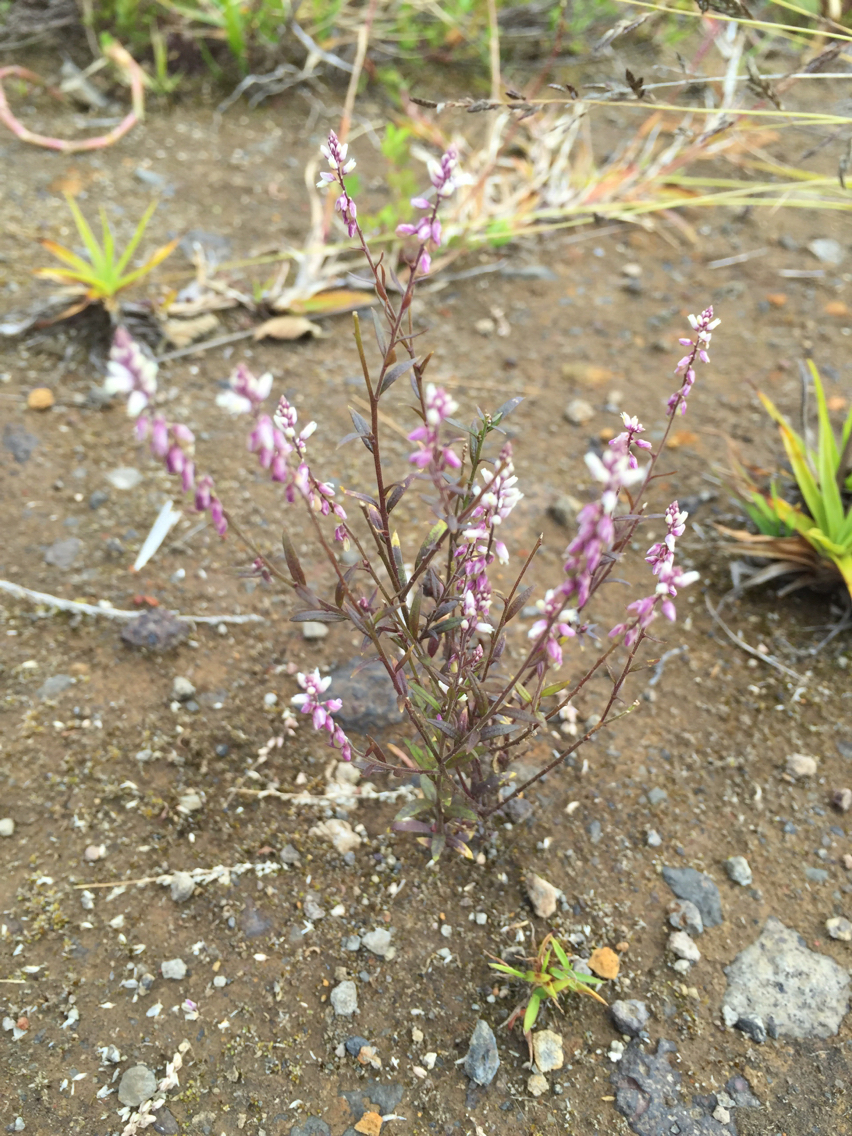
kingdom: Plantae
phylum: Tracheophyta
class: Magnoliopsida
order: Fabales
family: Polygalaceae
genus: Polygala
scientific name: Polygala paniculata
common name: Orosne
